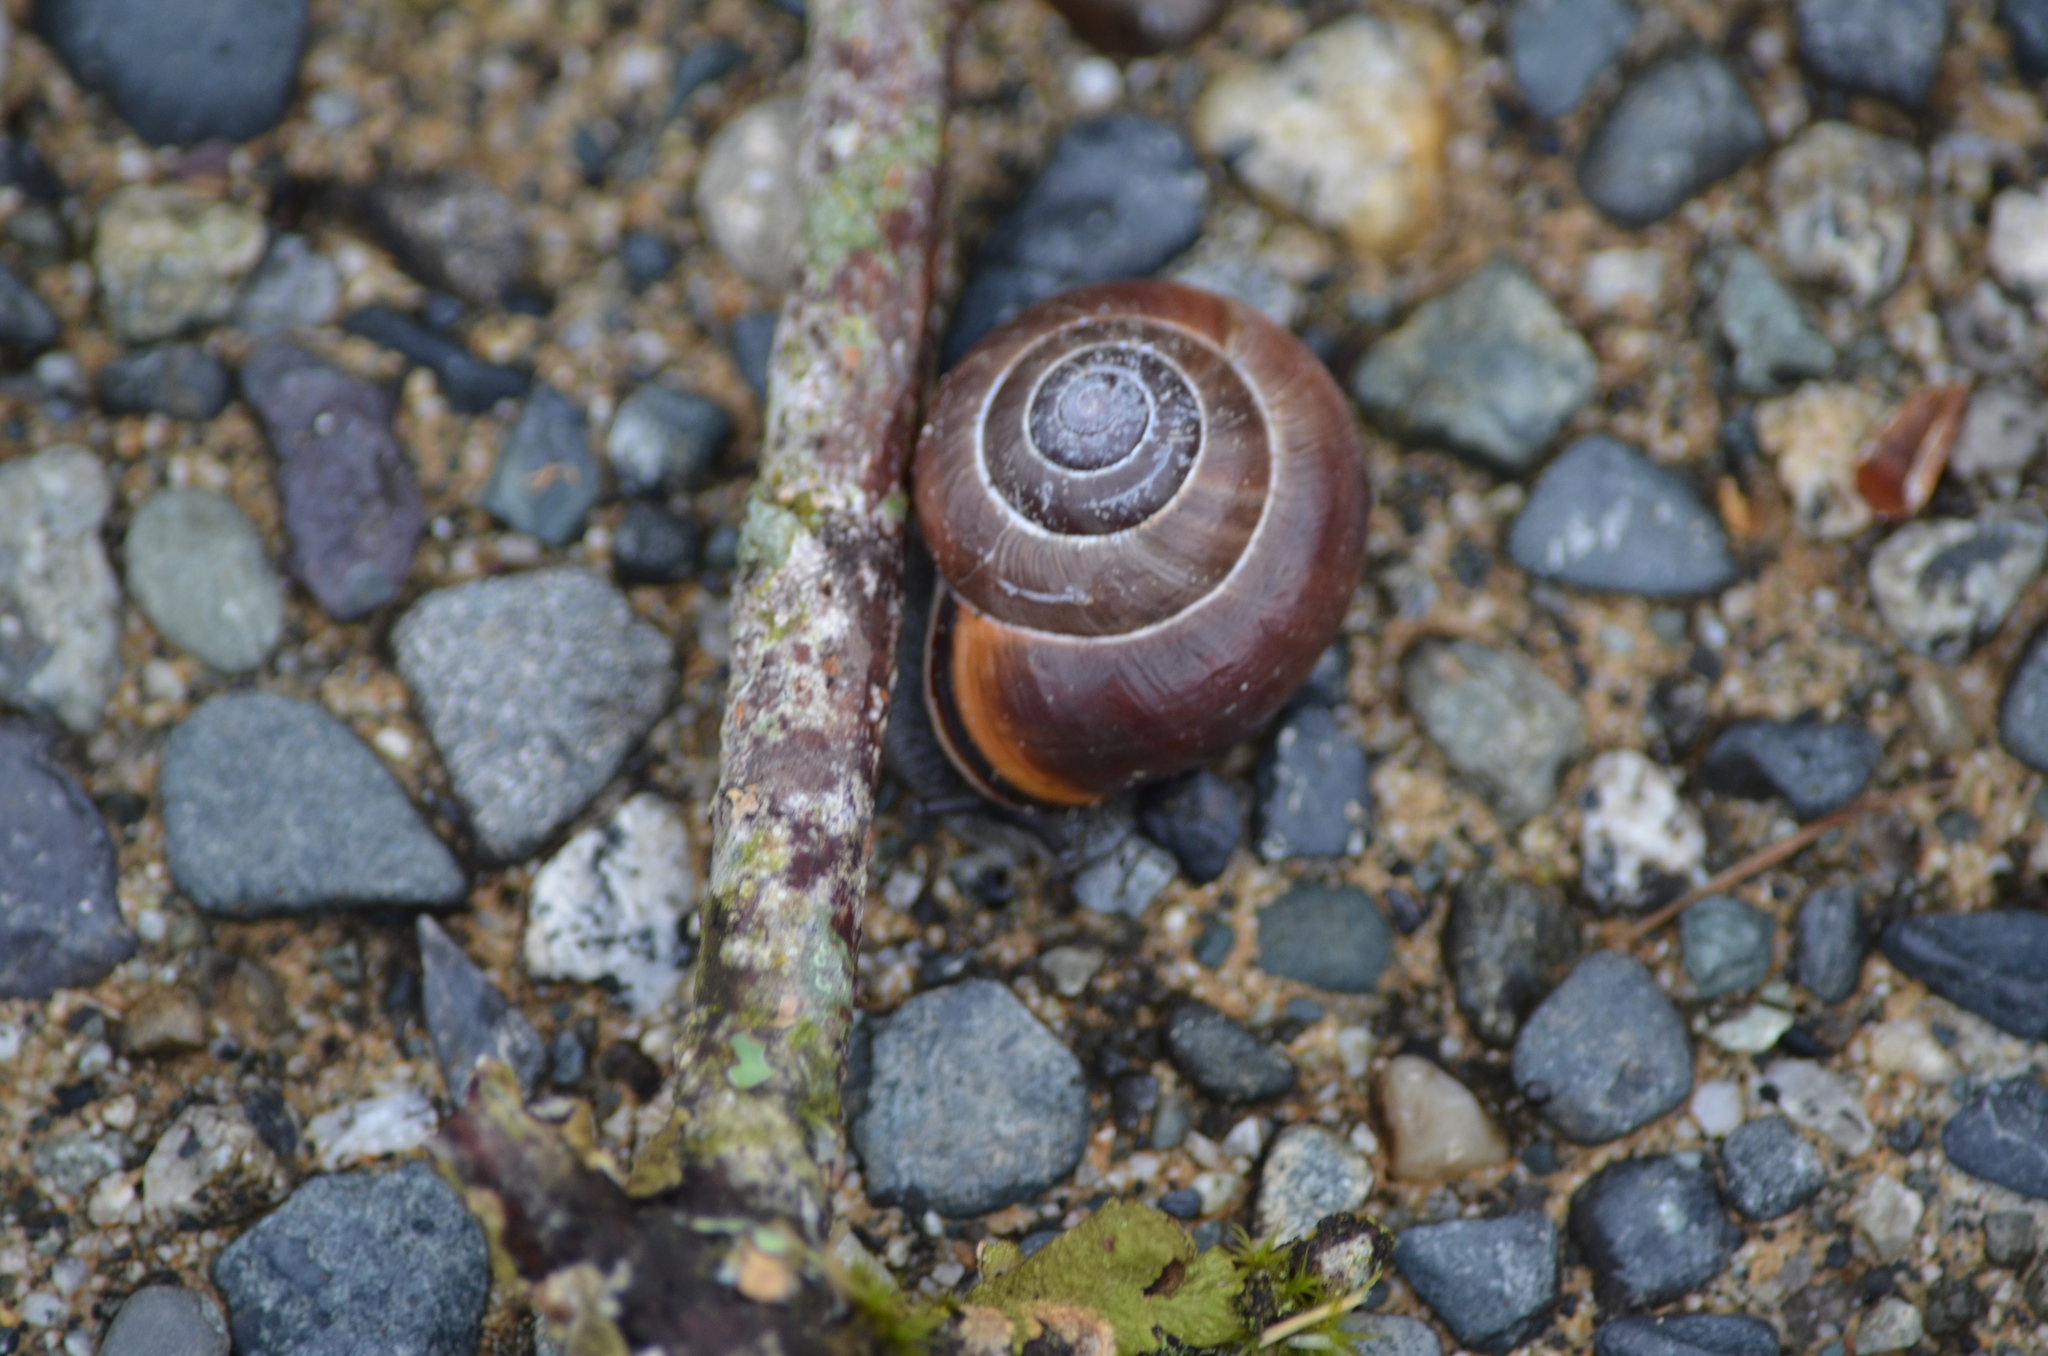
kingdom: Animalia
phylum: Mollusca
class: Gastropoda
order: Stylommatophora
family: Helicidae
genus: Cepaea
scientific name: Cepaea nemoralis
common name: Grovesnail
